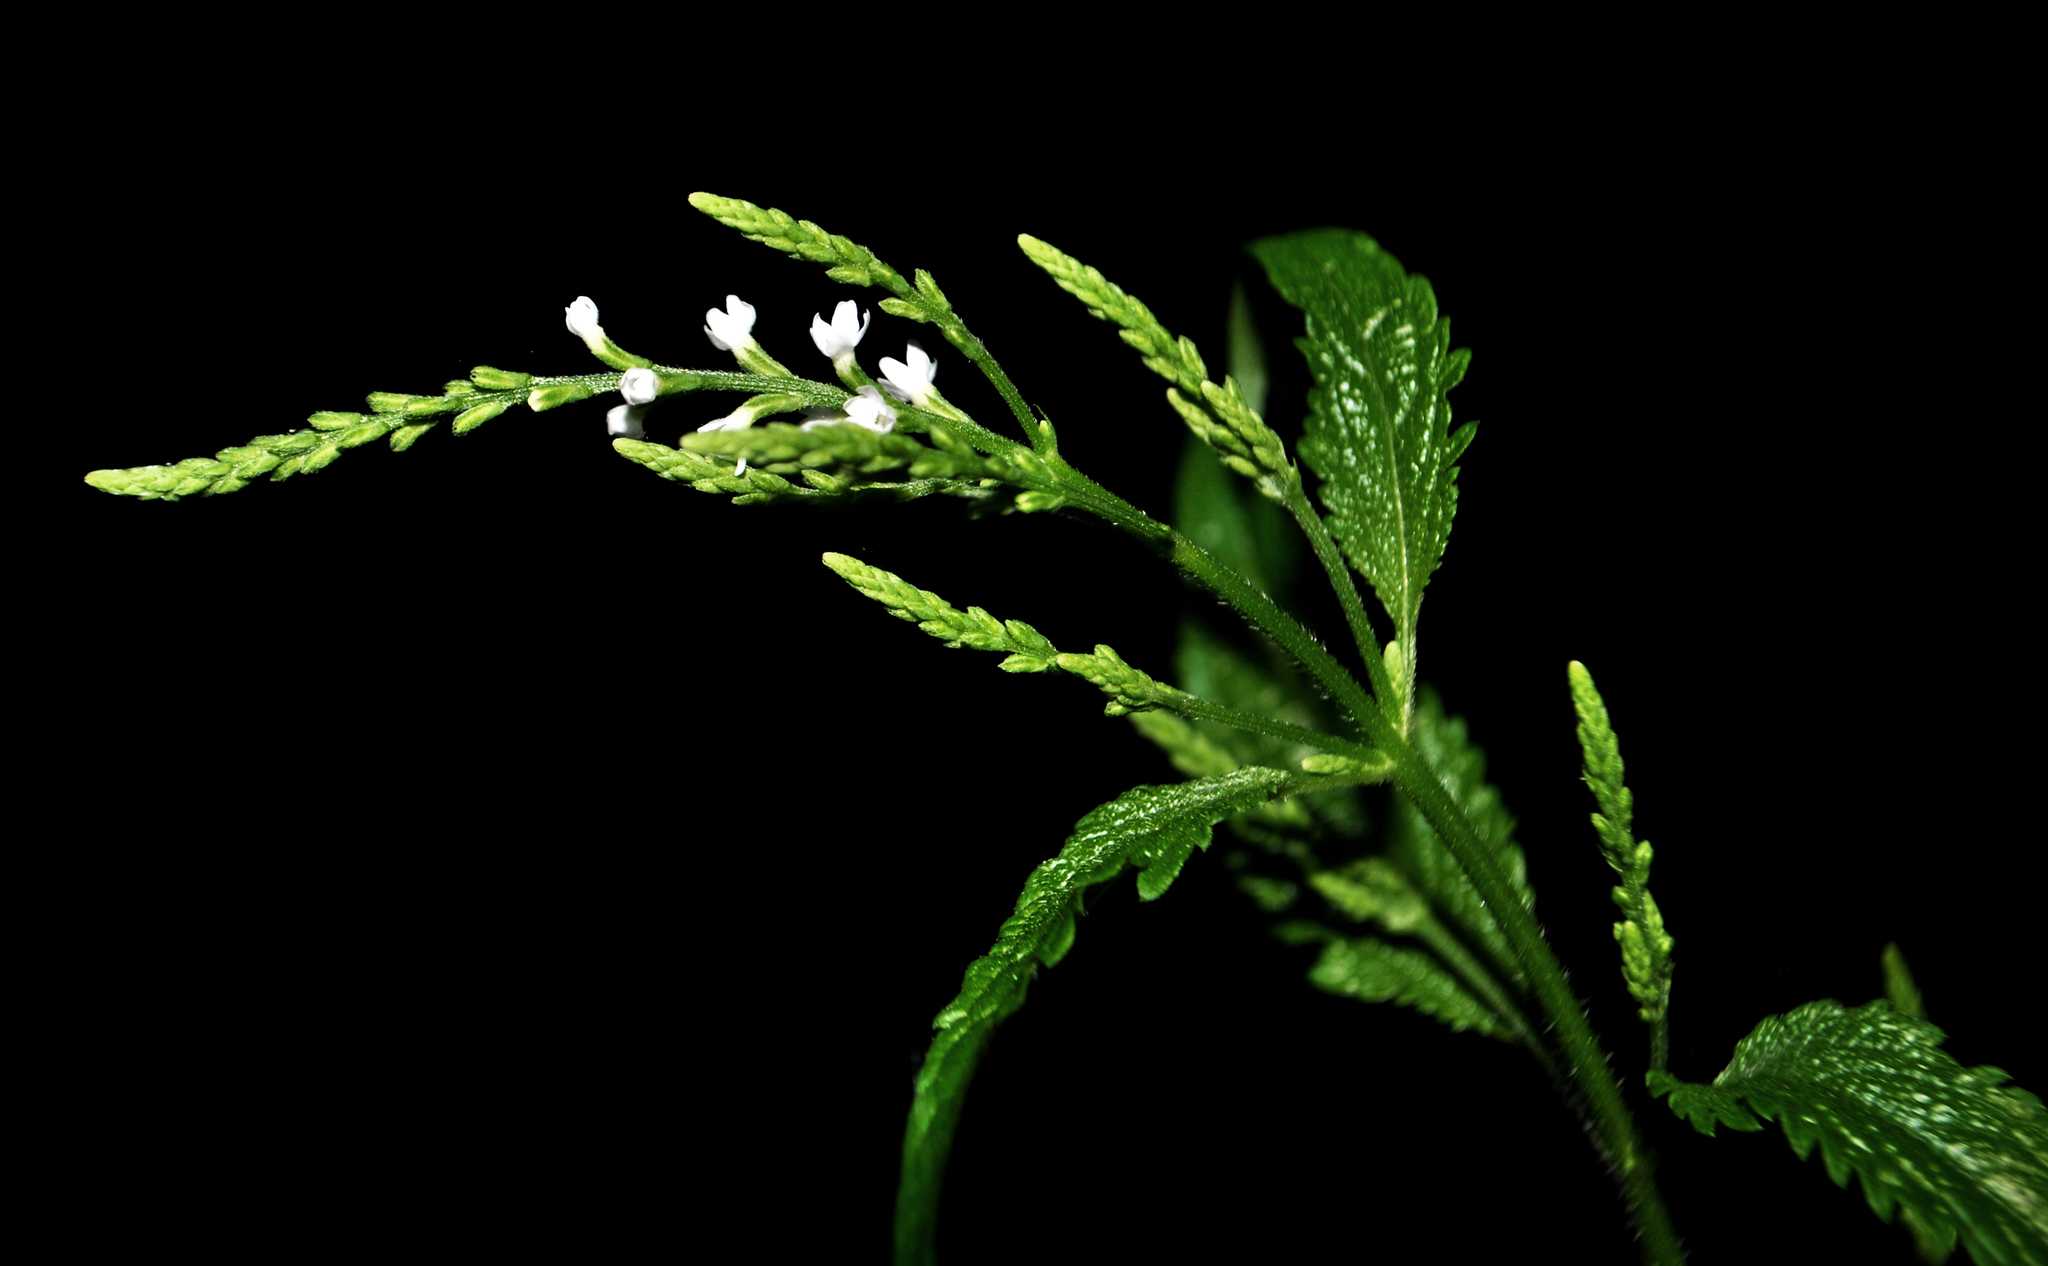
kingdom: Plantae
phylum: Tracheophyta
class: Magnoliopsida
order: Lamiales
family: Verbenaceae
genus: Verbena
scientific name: Verbena urticifolia
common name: Nettle-leaved vervain
